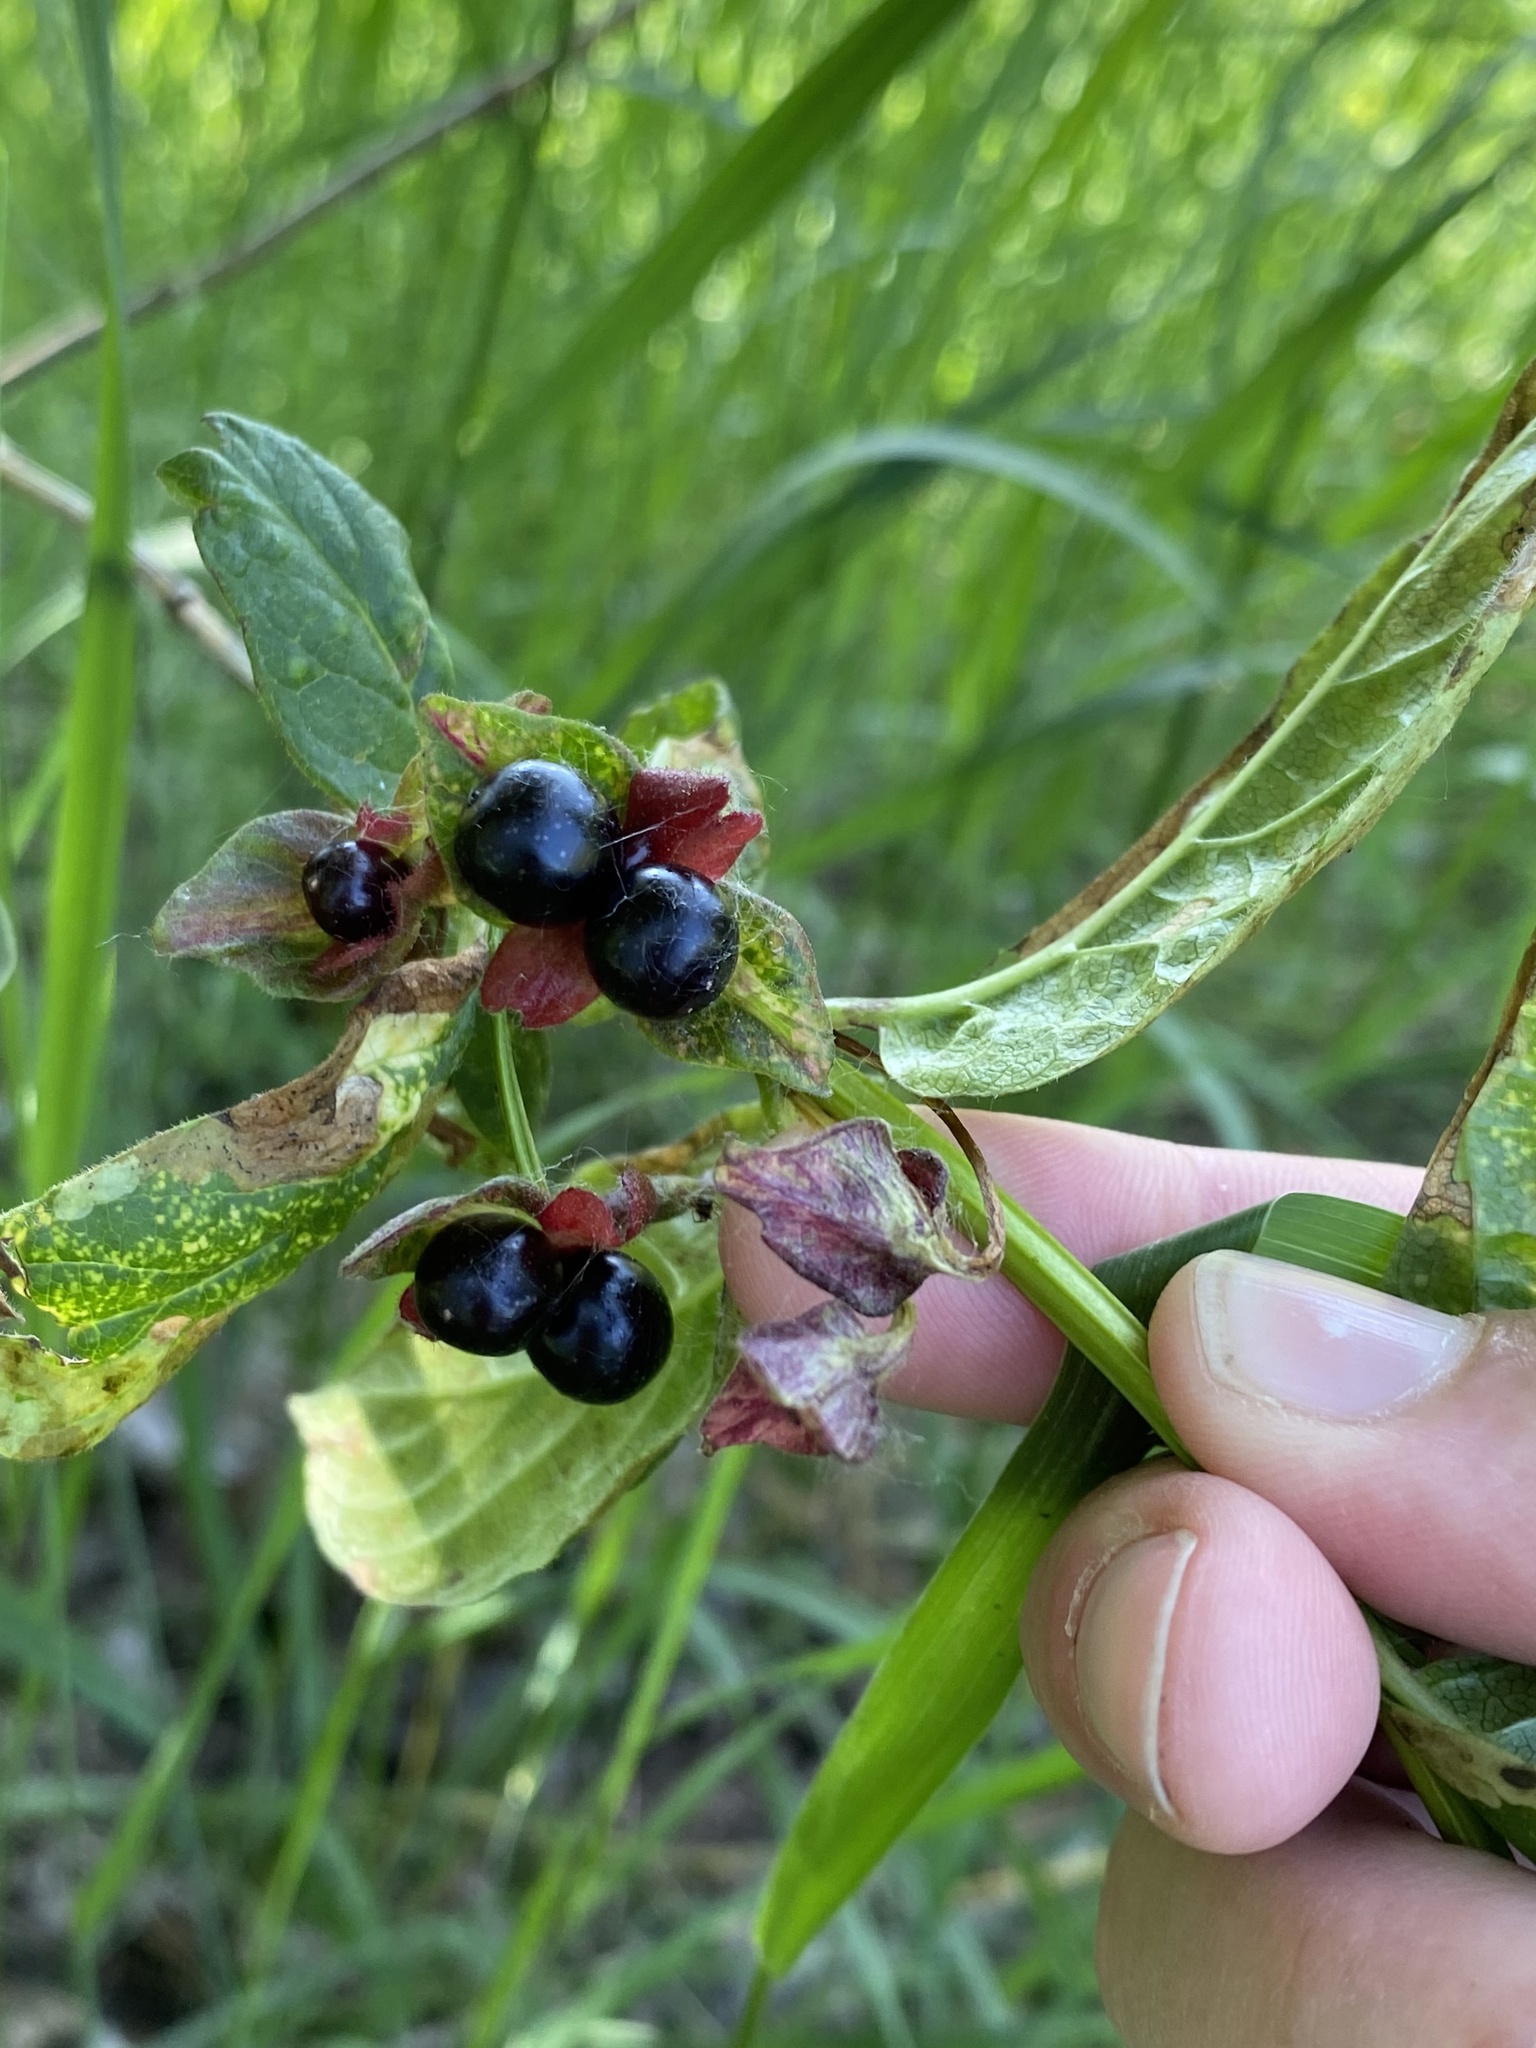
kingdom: Plantae
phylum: Tracheophyta
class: Magnoliopsida
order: Dipsacales
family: Caprifoliaceae
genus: Lonicera
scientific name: Lonicera involucrata
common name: Californian honeysuckle
